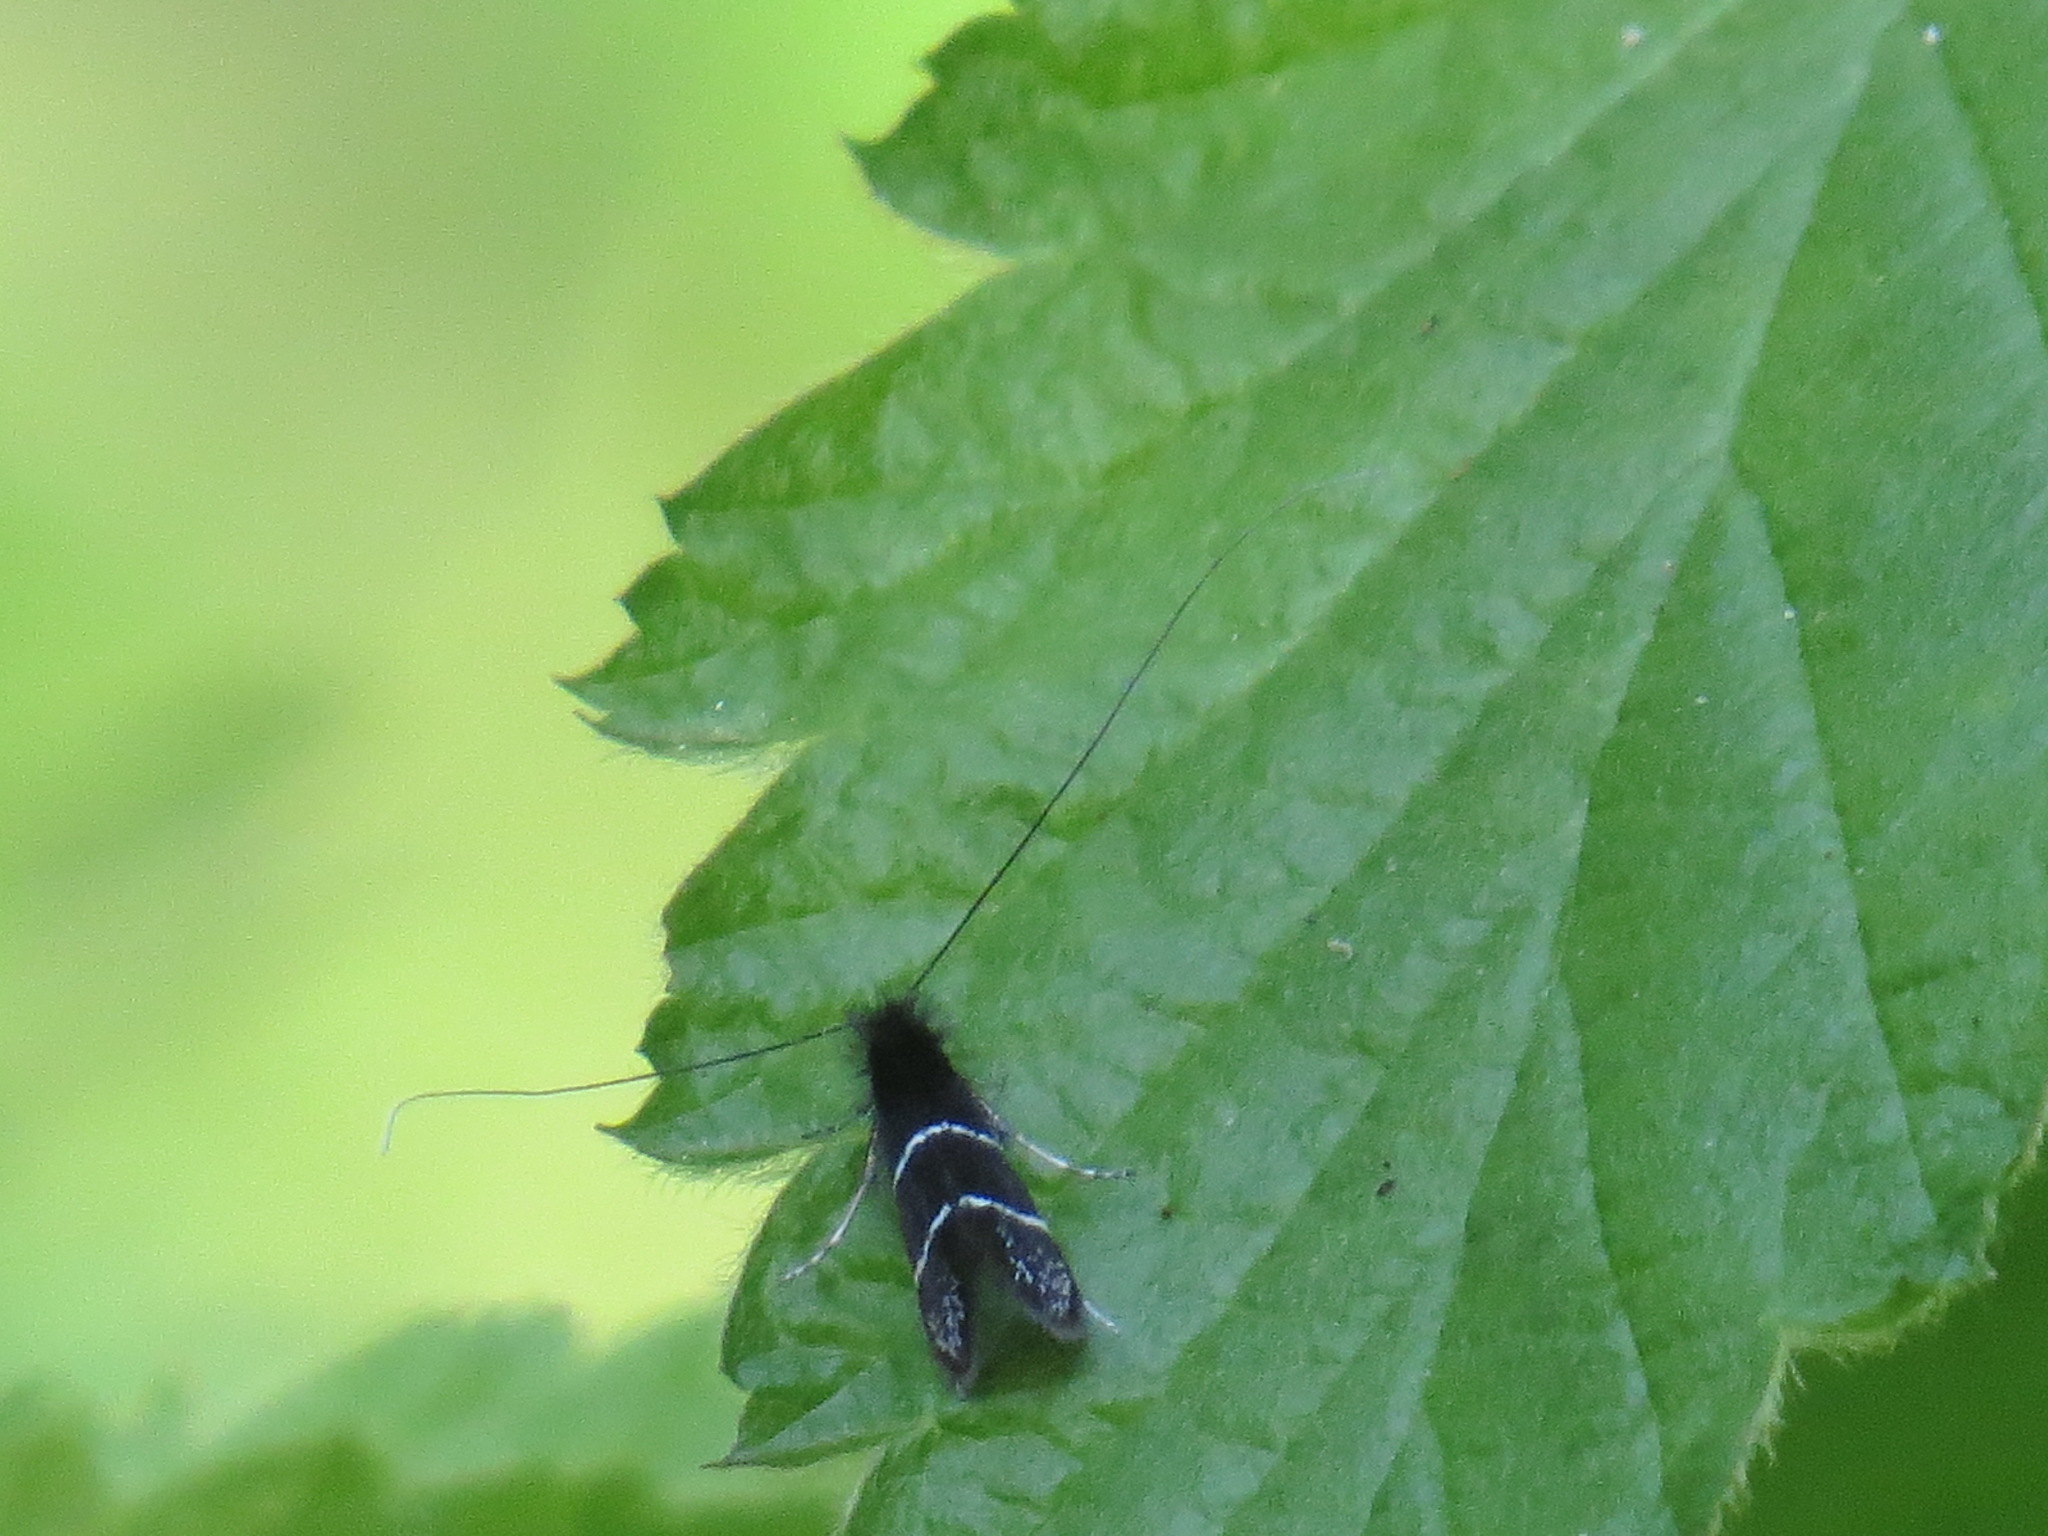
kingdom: Animalia
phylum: Arthropoda
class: Insecta
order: Lepidoptera
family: Adelidae
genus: Adela
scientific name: Adela septentrionella
